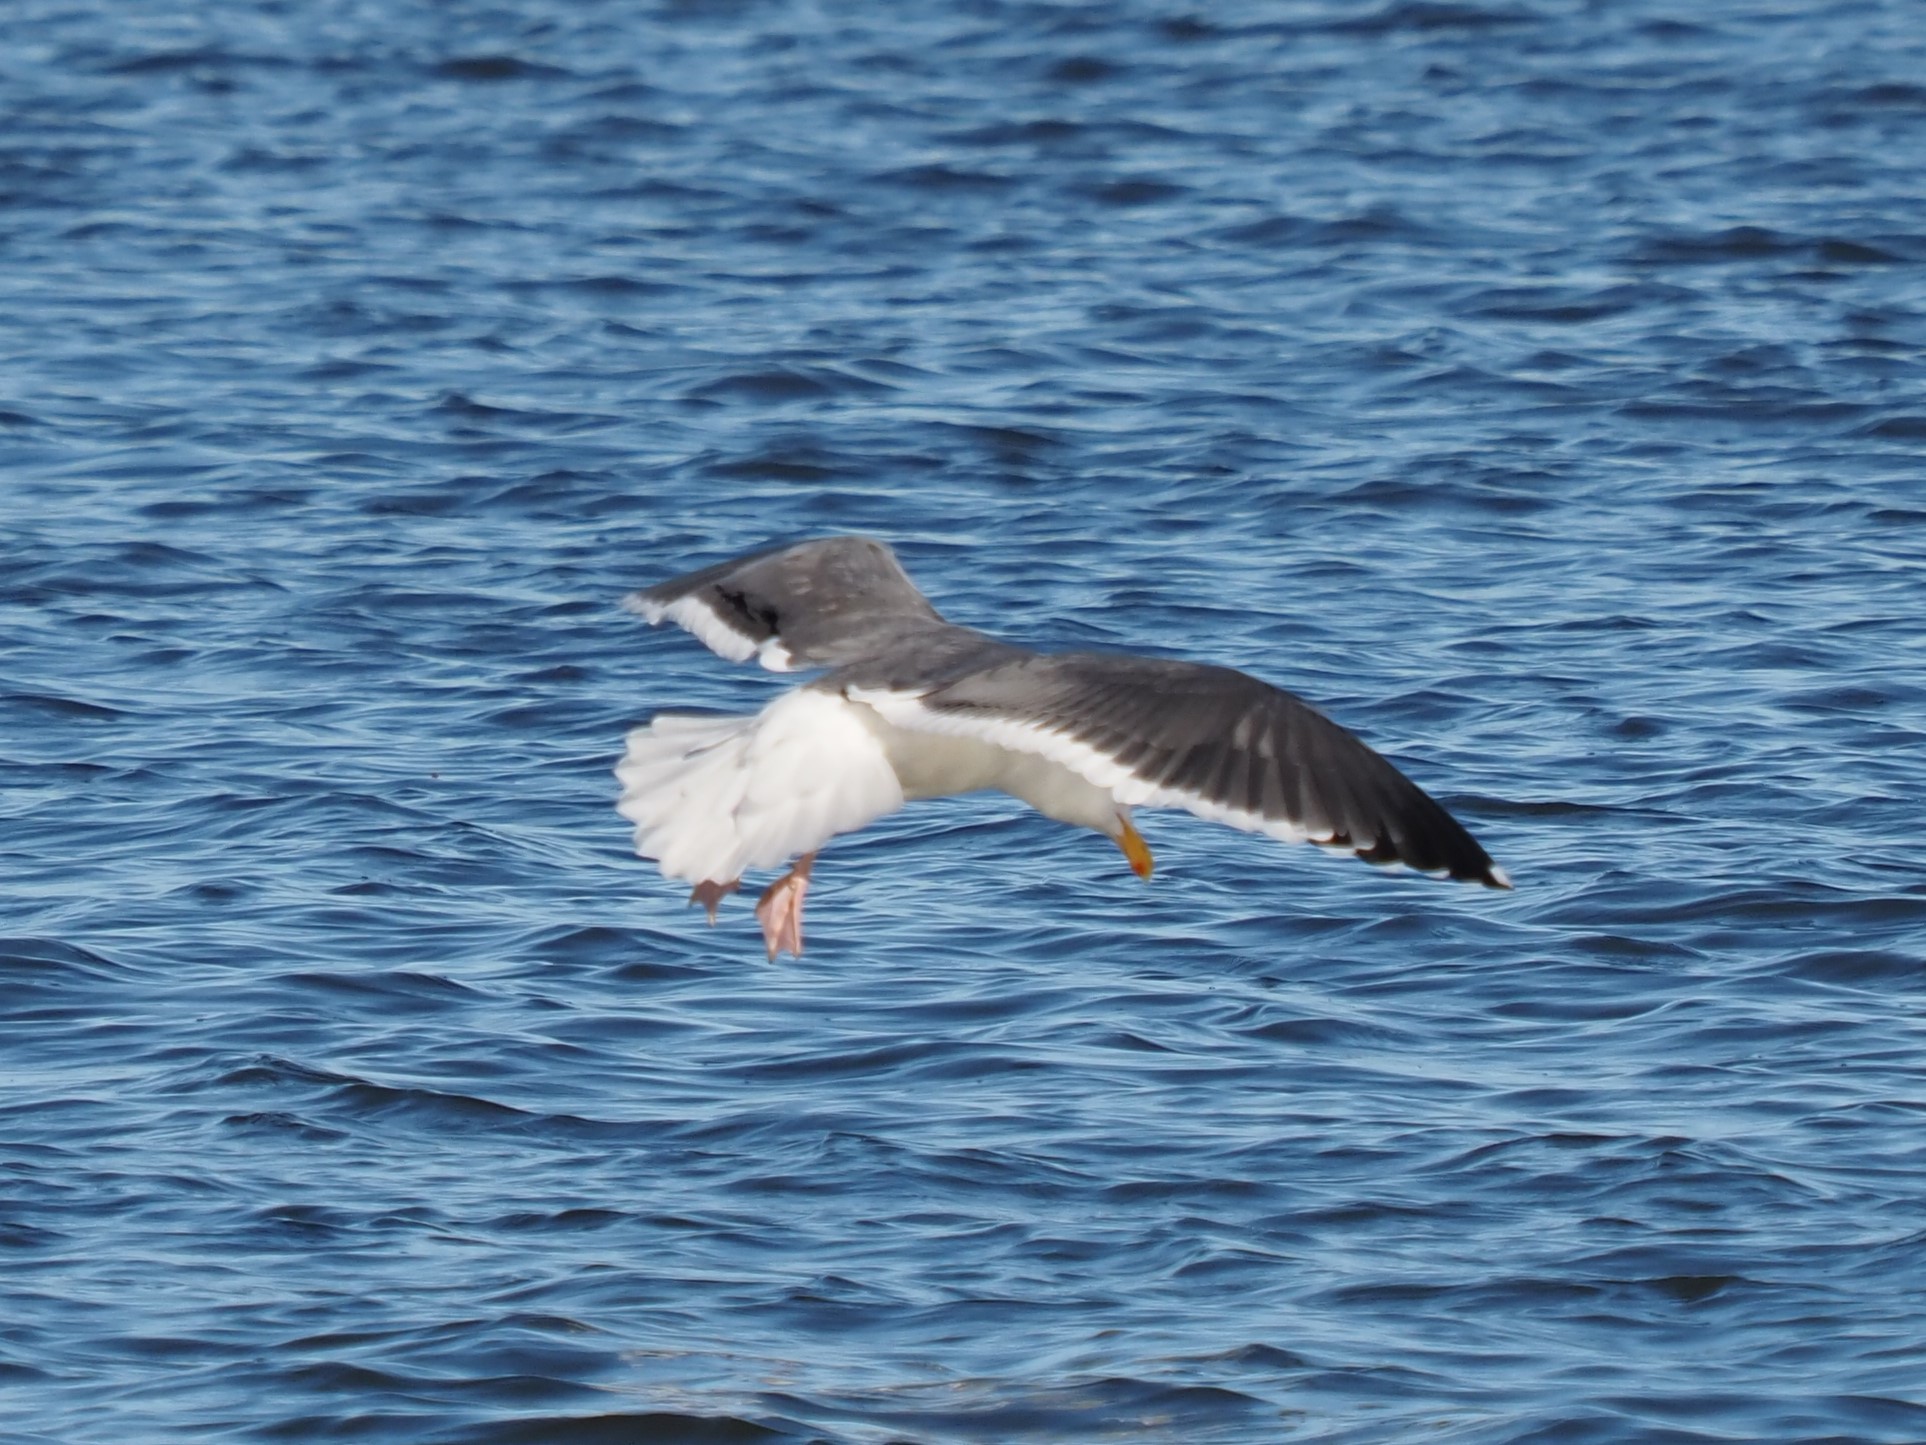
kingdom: Animalia
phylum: Chordata
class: Aves
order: Charadriiformes
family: Laridae
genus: Larus
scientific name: Larus occidentalis
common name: Western gull
